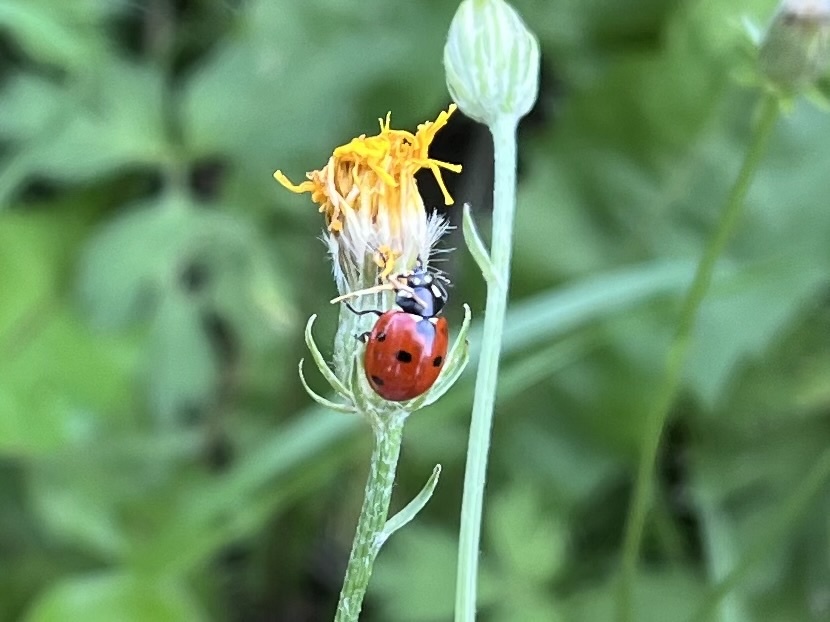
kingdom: Animalia
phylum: Arthropoda
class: Insecta
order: Coleoptera
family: Coccinellidae
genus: Coccinella
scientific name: Coccinella septempunctata
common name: Sevenspotted lady beetle
